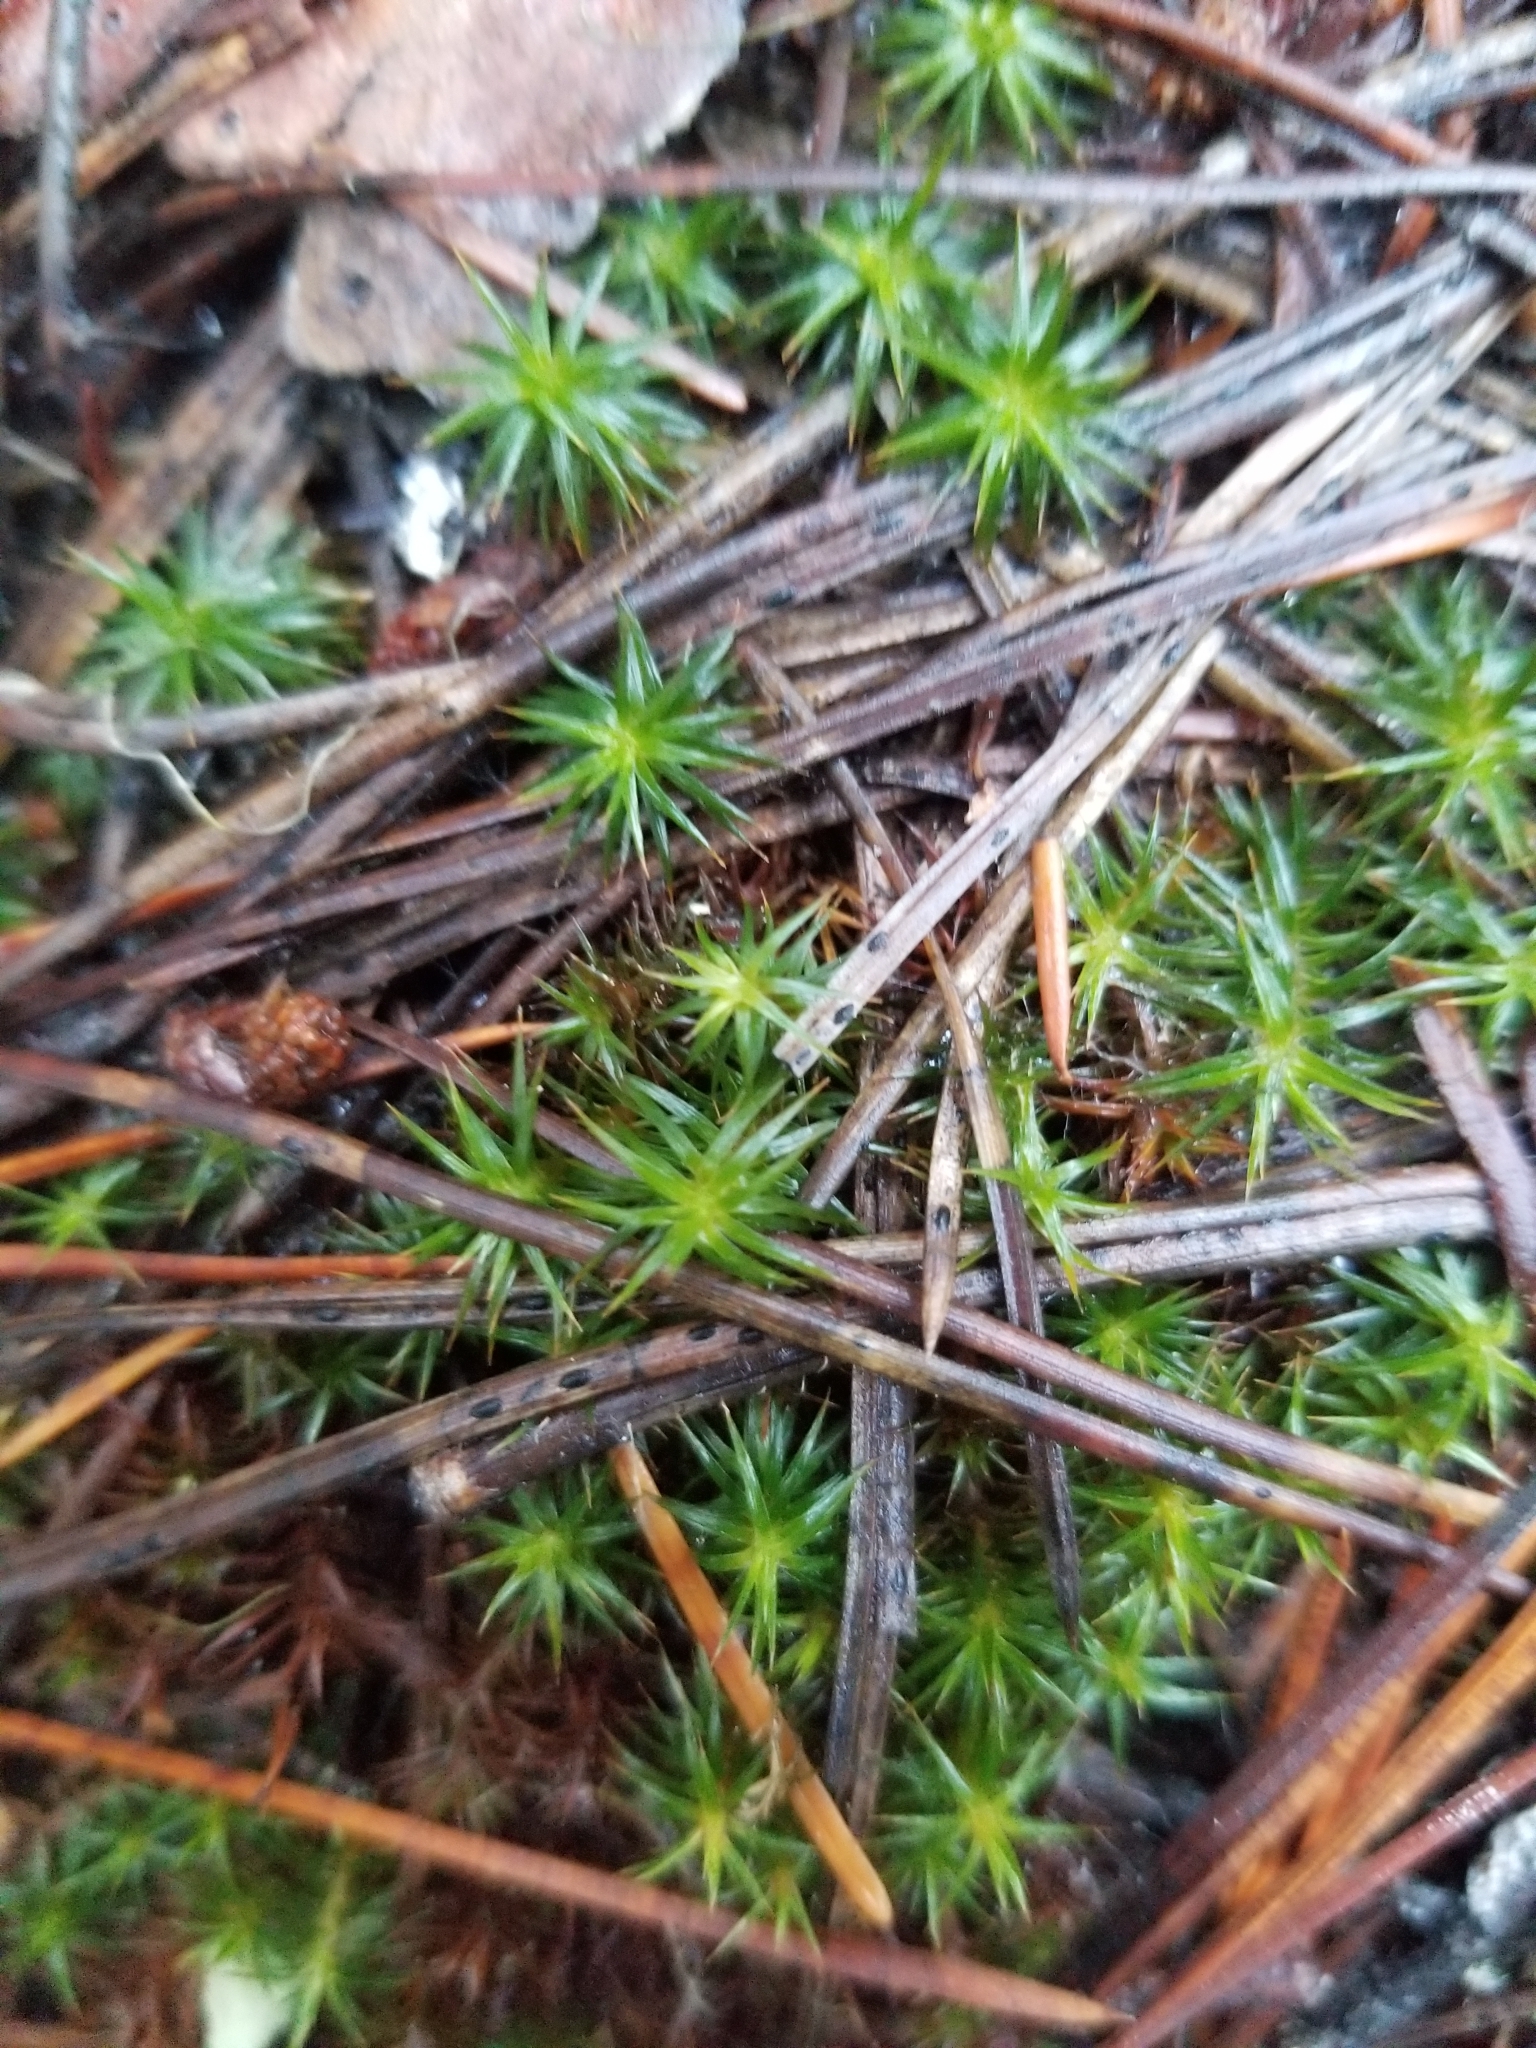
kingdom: Plantae
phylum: Bryophyta
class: Polytrichopsida
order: Polytrichales
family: Polytrichaceae
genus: Polytrichum
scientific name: Polytrichum juniperinum
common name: Juniper haircap moss
